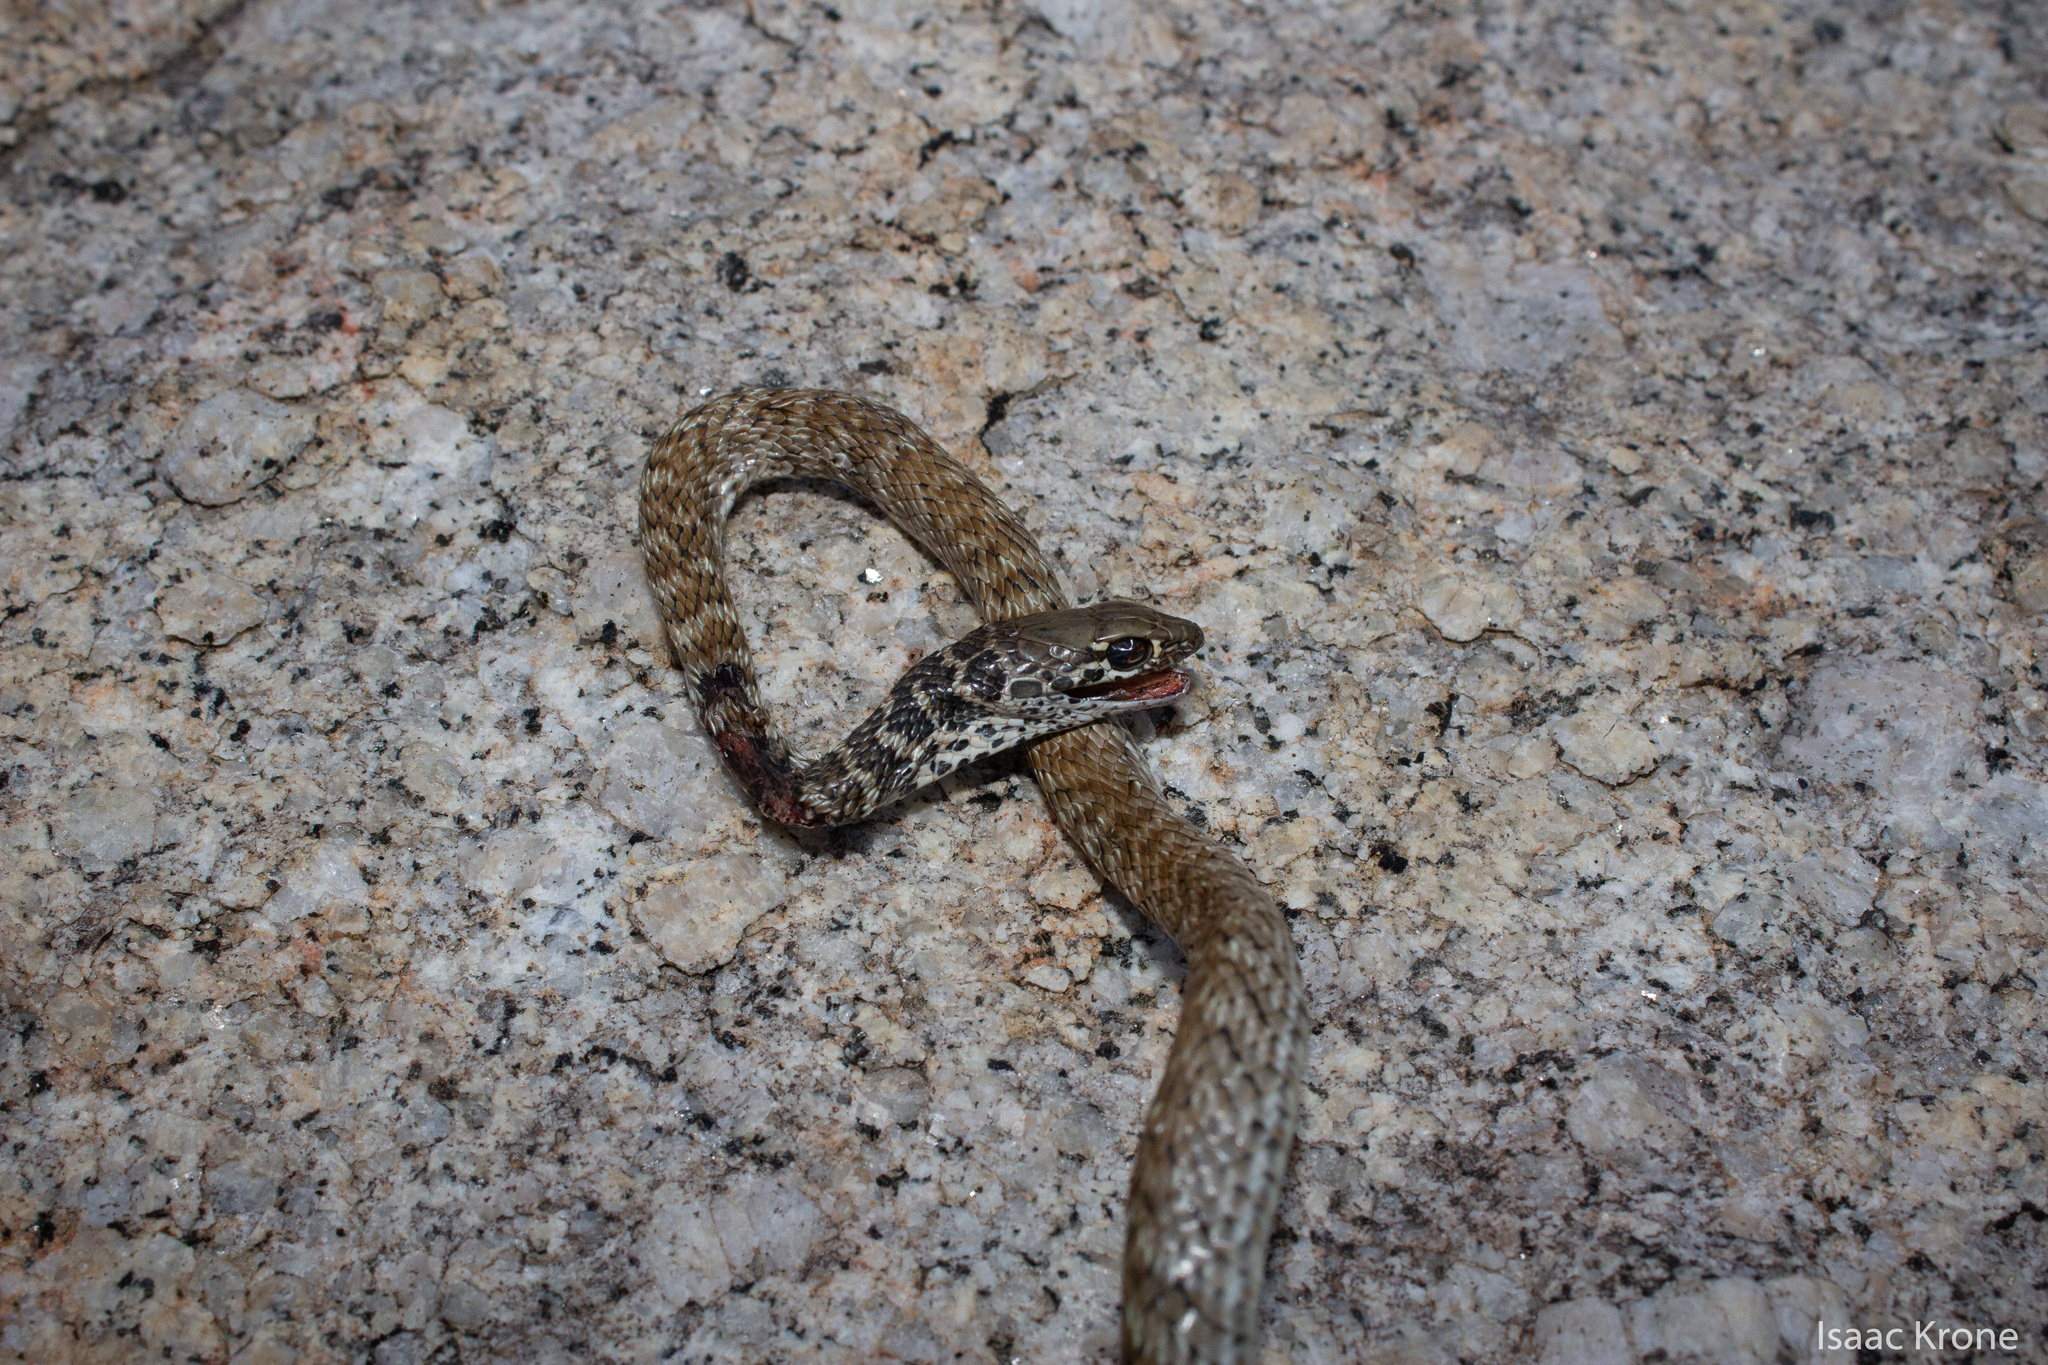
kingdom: Animalia
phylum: Chordata
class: Squamata
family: Colubridae
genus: Masticophis
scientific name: Masticophis flagellum
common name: Coachwhip
